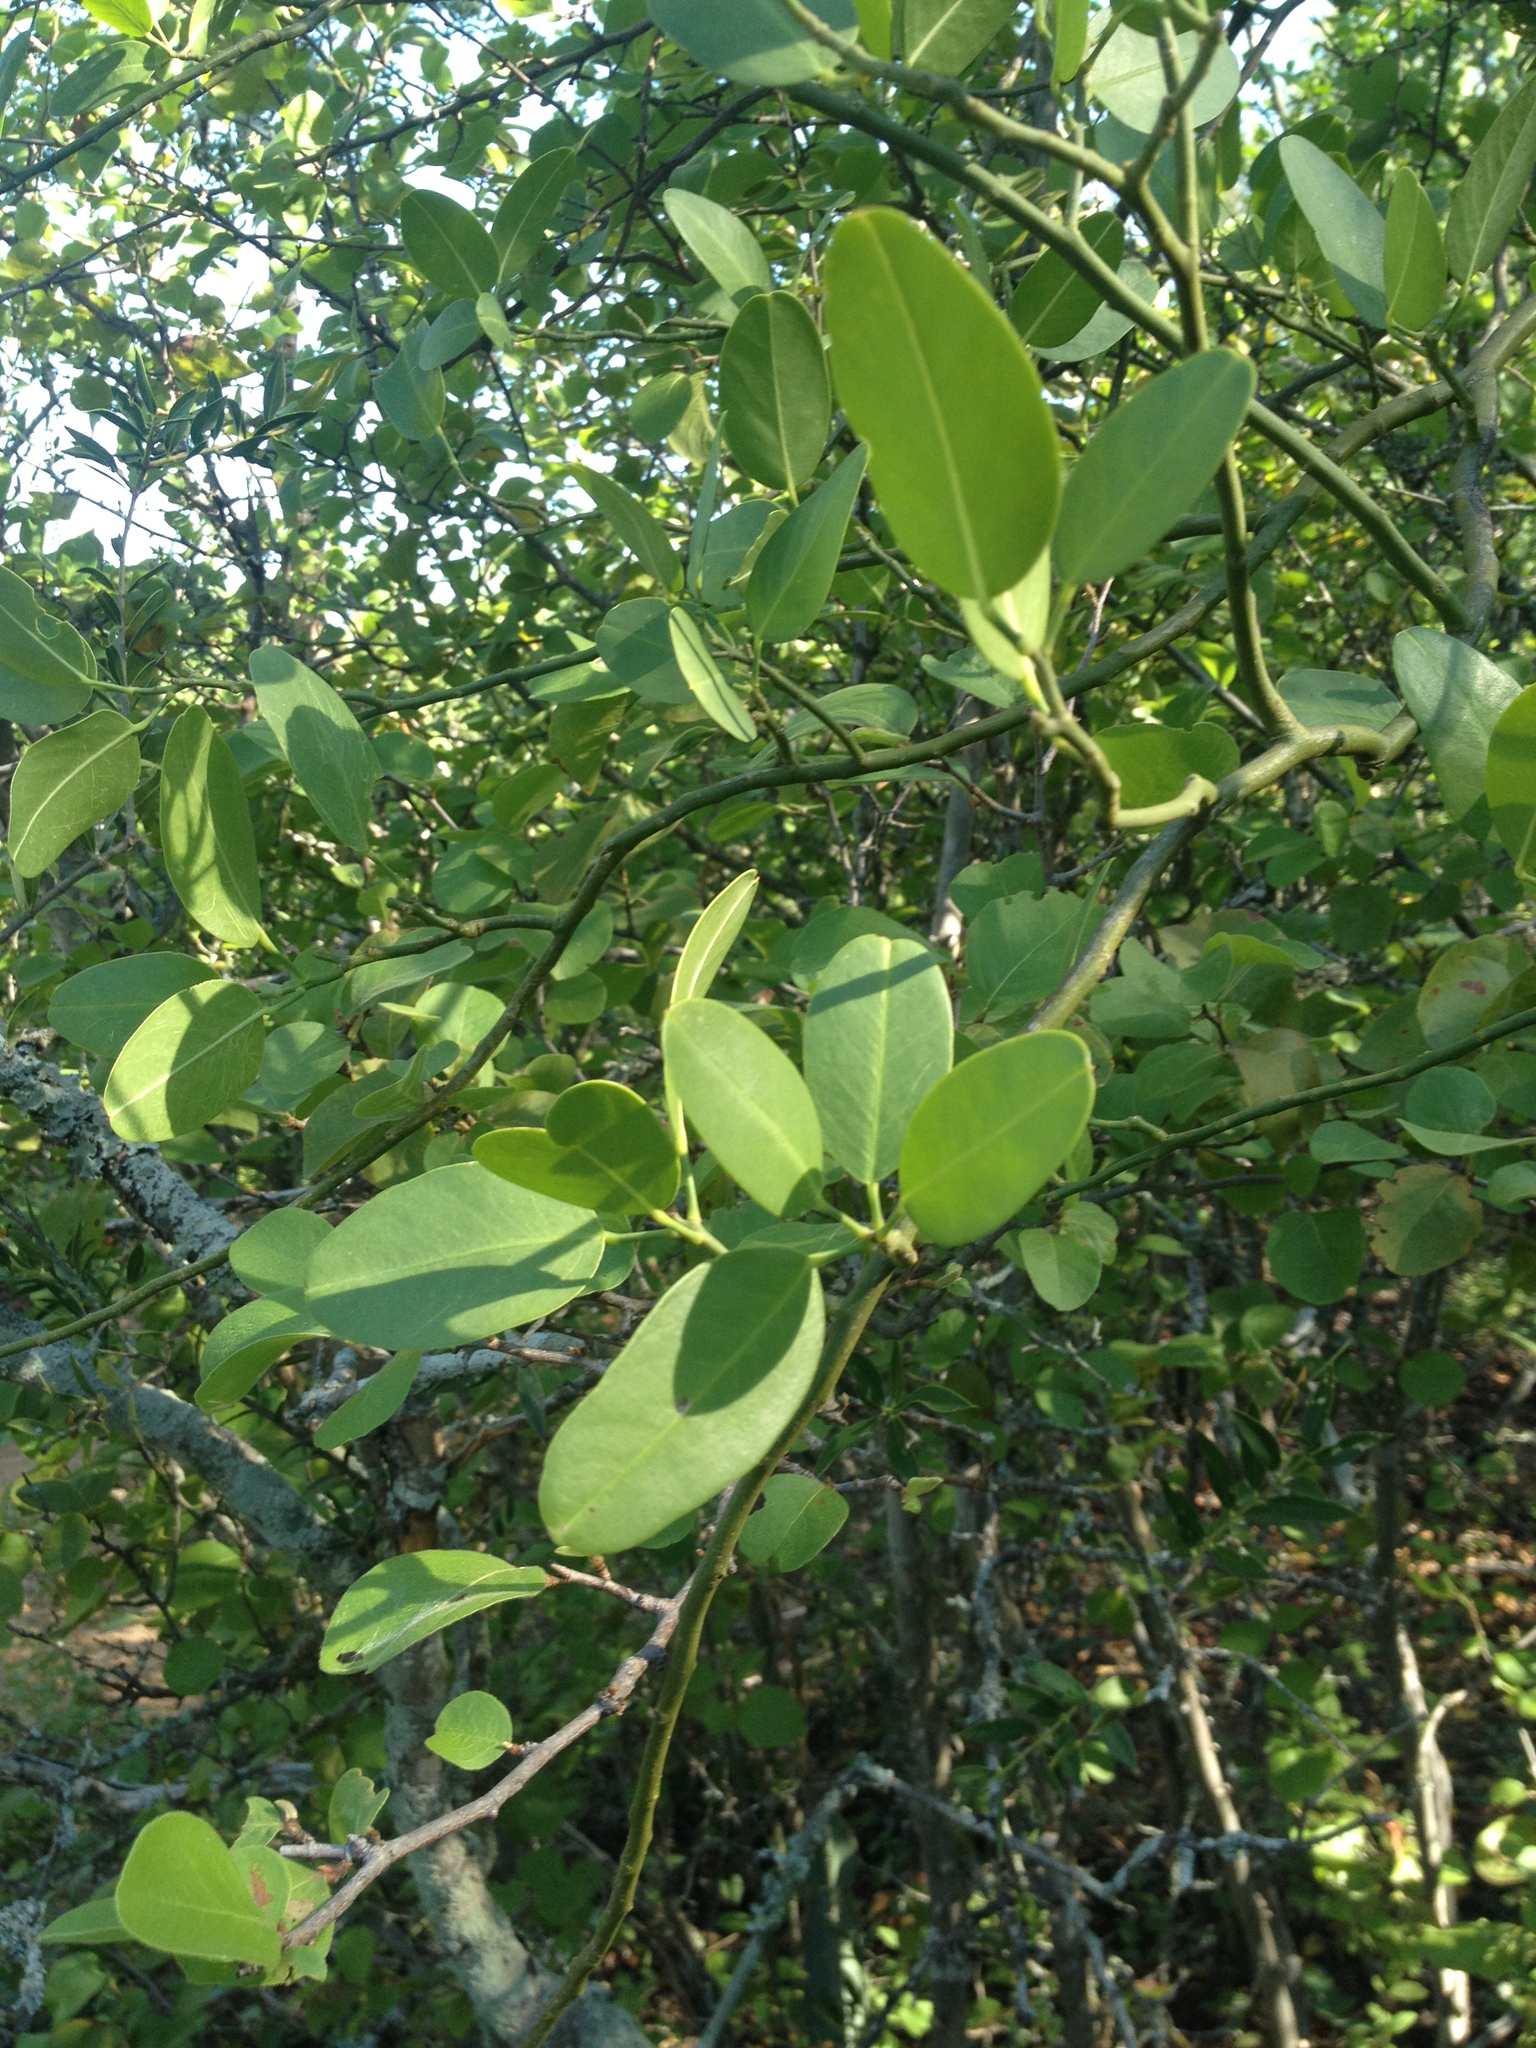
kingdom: Plantae
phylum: Tracheophyta
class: Magnoliopsida
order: Brassicales
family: Capparaceae
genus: Anisocapparis
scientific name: Anisocapparis speciosa
